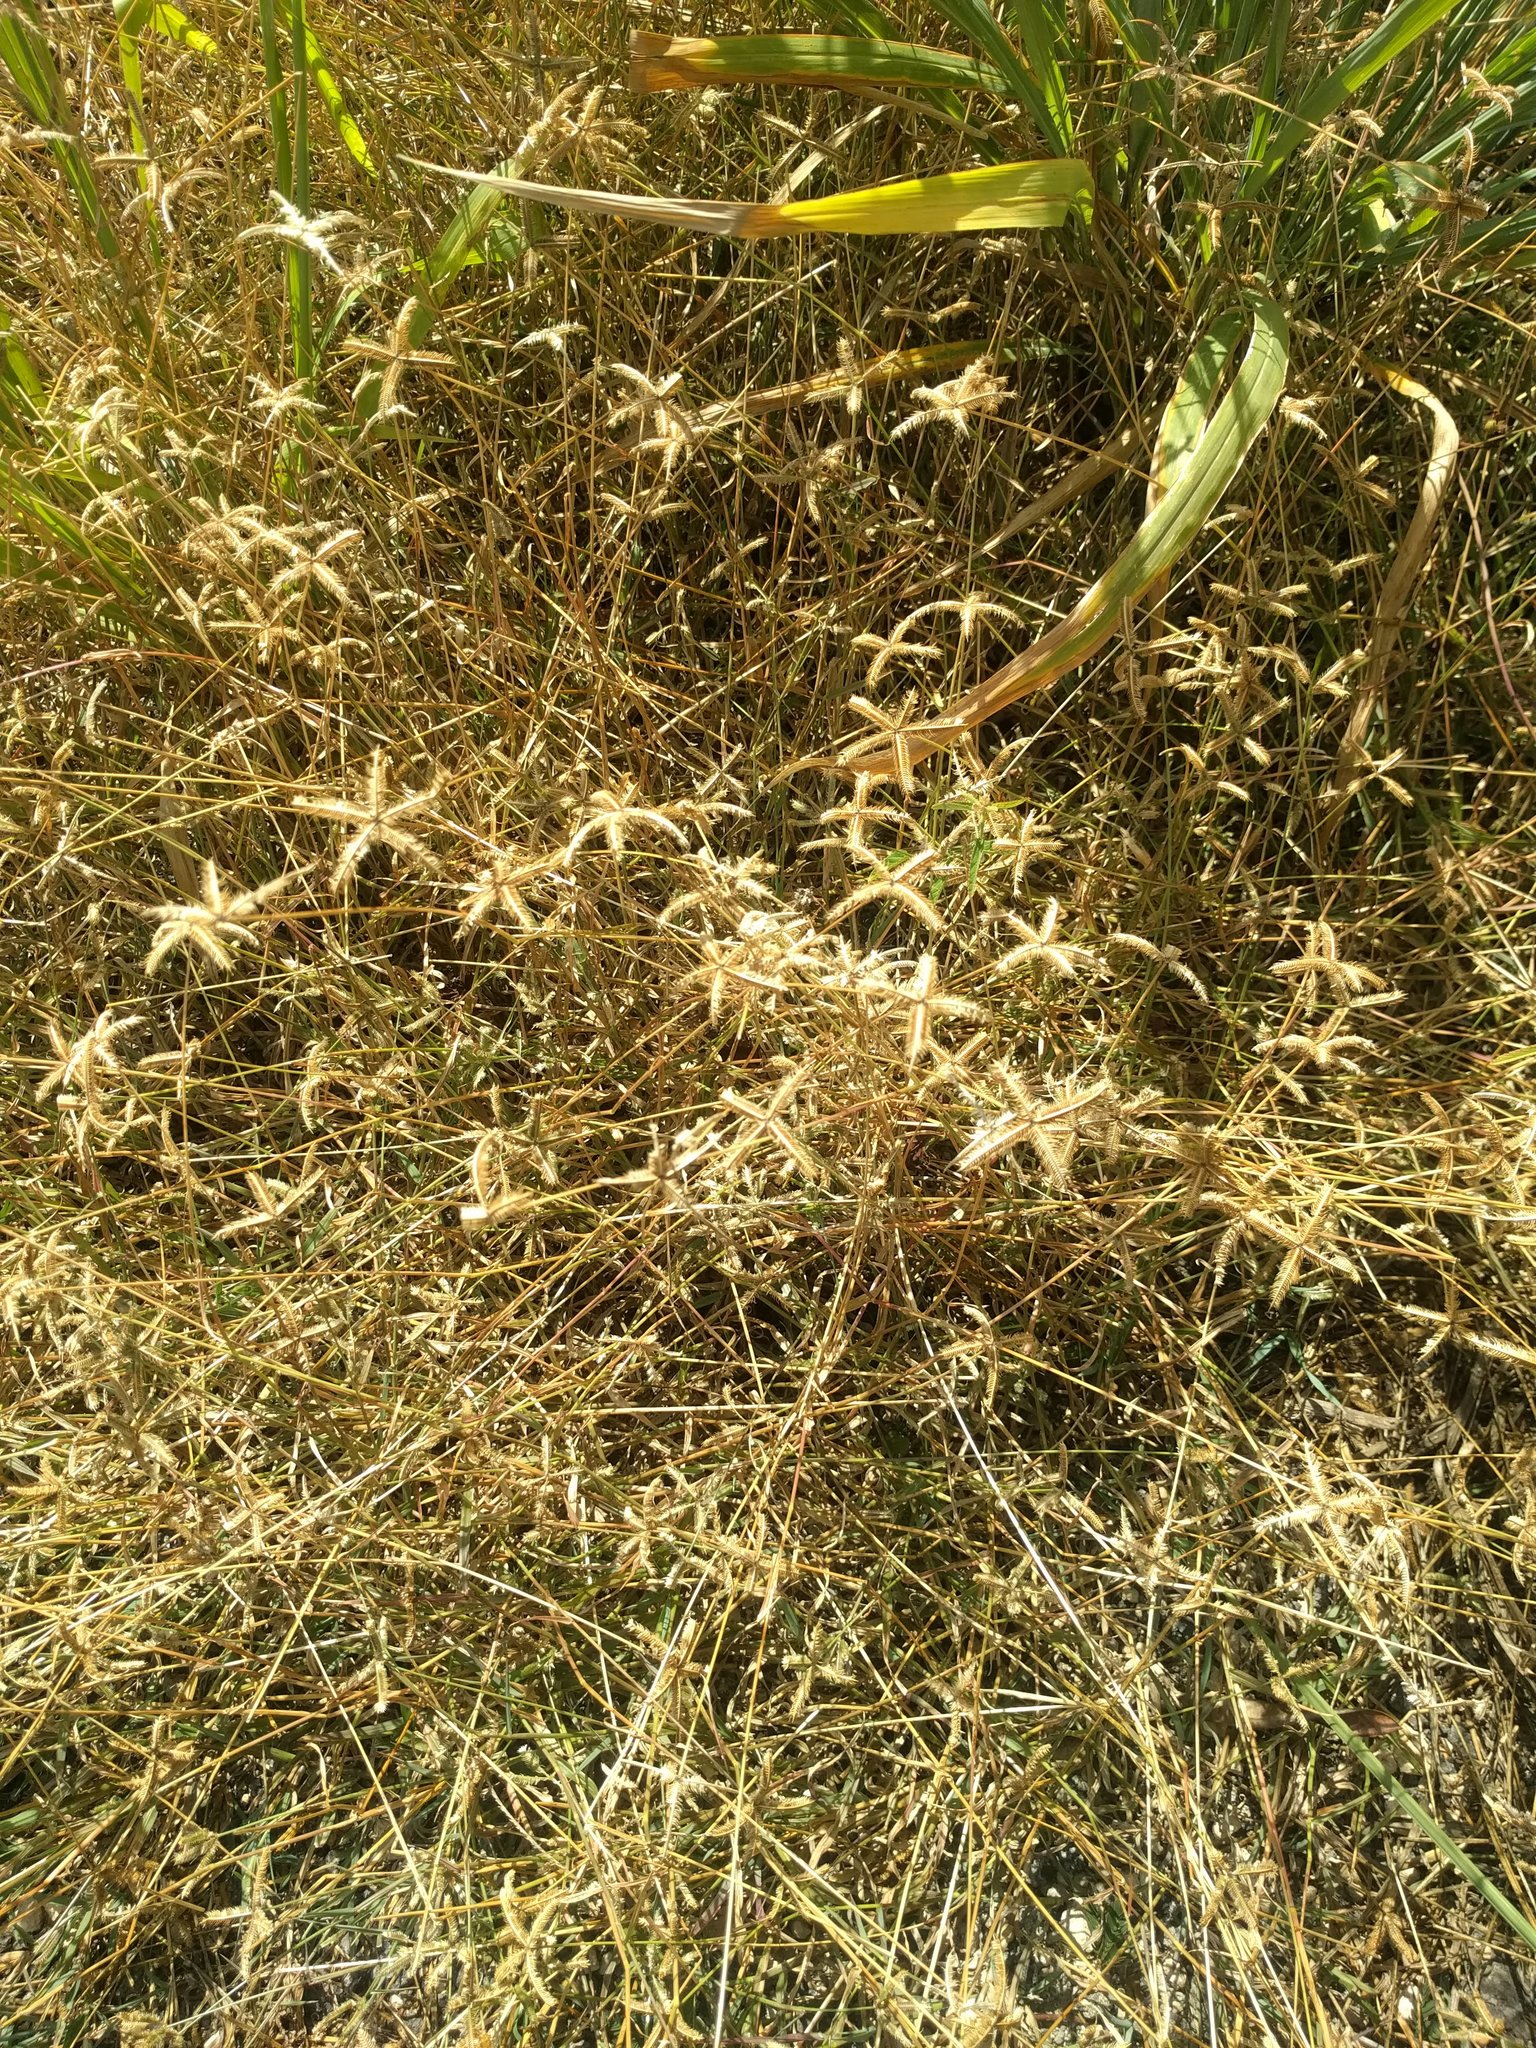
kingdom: Plantae
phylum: Tracheophyta
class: Liliopsida
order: Poales
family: Poaceae
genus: Dactyloctenium
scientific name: Dactyloctenium aegyptium
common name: Egyptian grass
